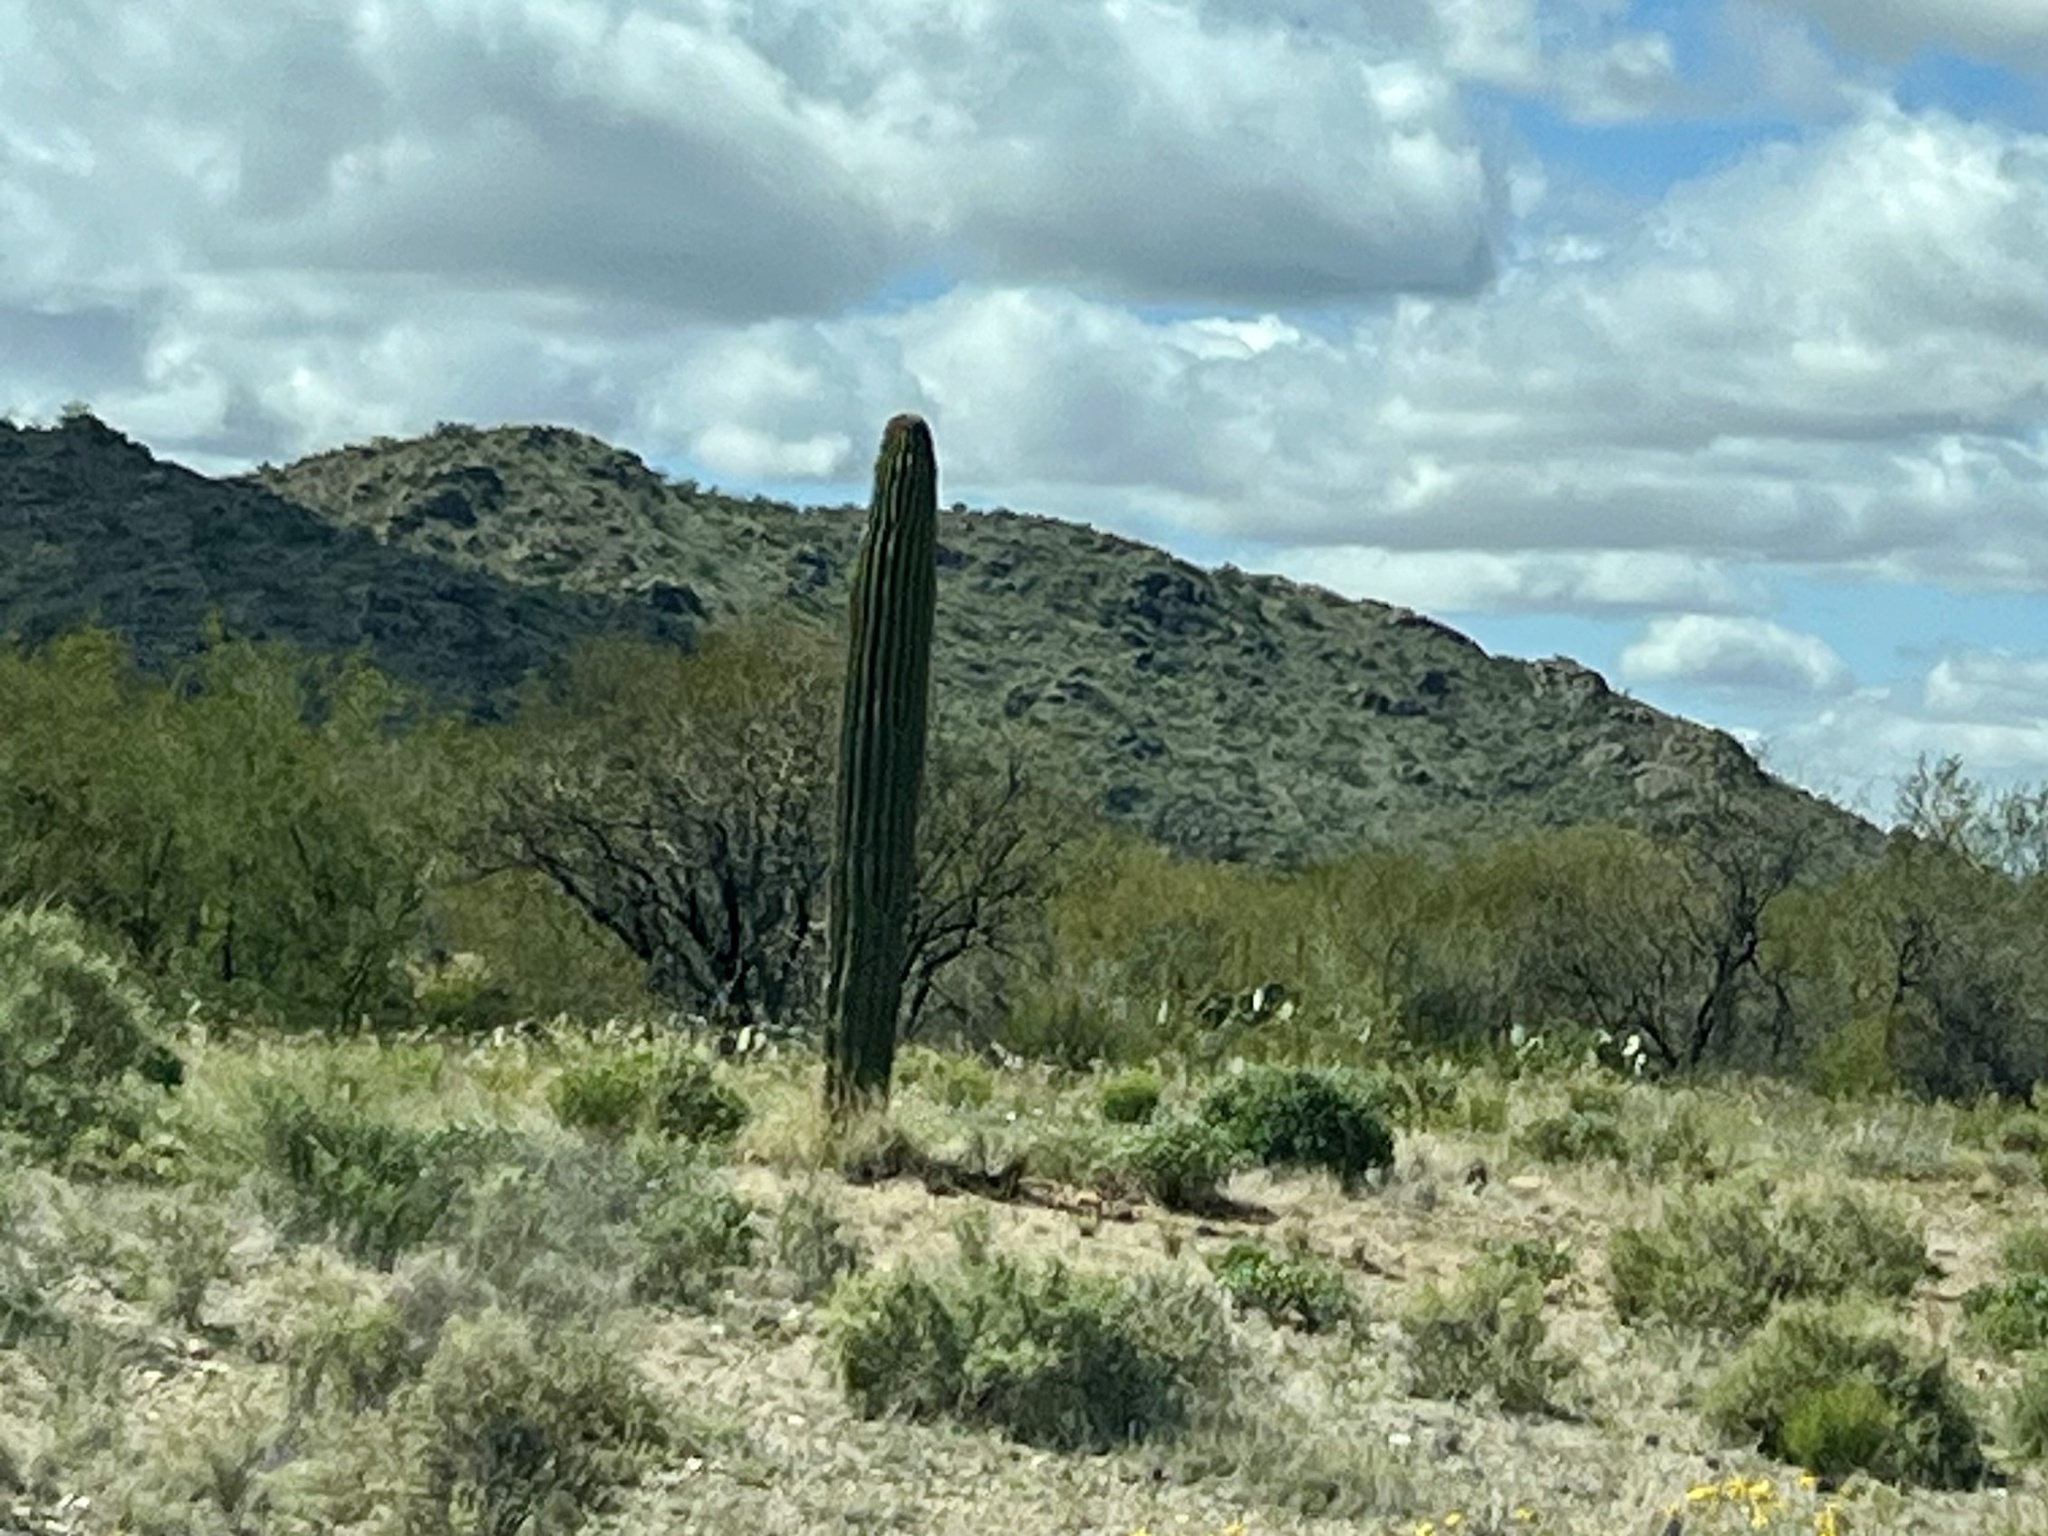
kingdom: Plantae
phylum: Tracheophyta
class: Magnoliopsida
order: Caryophyllales
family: Cactaceae
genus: Carnegiea
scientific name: Carnegiea gigantea
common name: Saguaro
